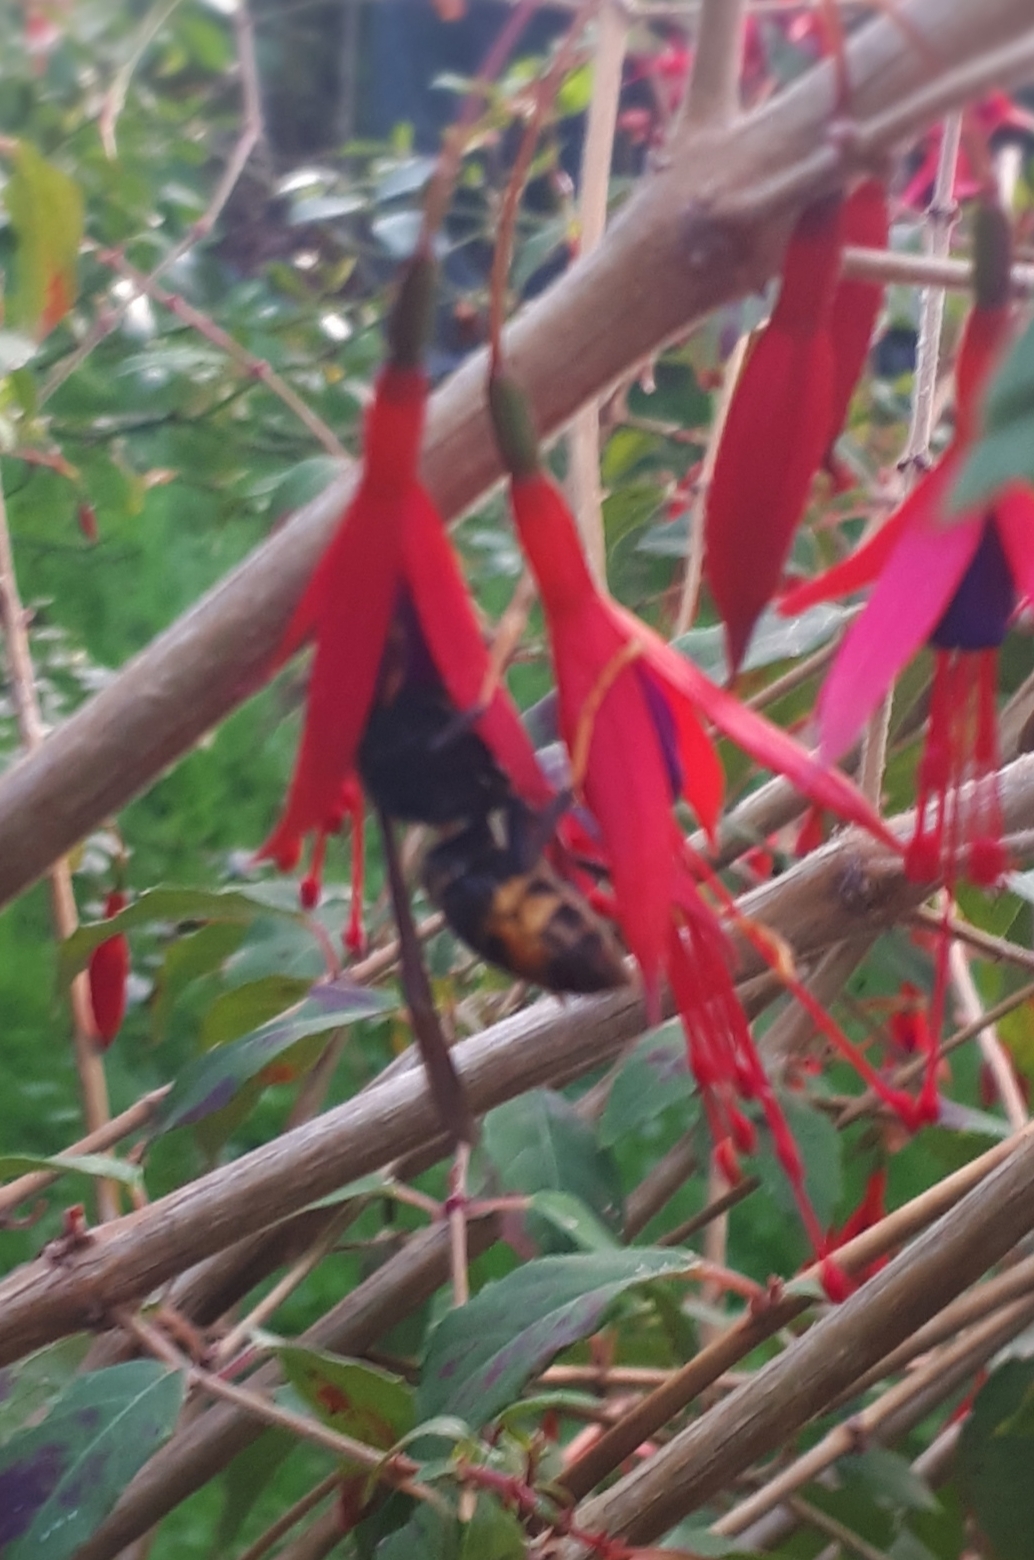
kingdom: Animalia
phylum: Arthropoda
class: Insecta
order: Hymenoptera
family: Vespidae
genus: Vespa
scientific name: Vespa velutina
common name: Asian hornet
